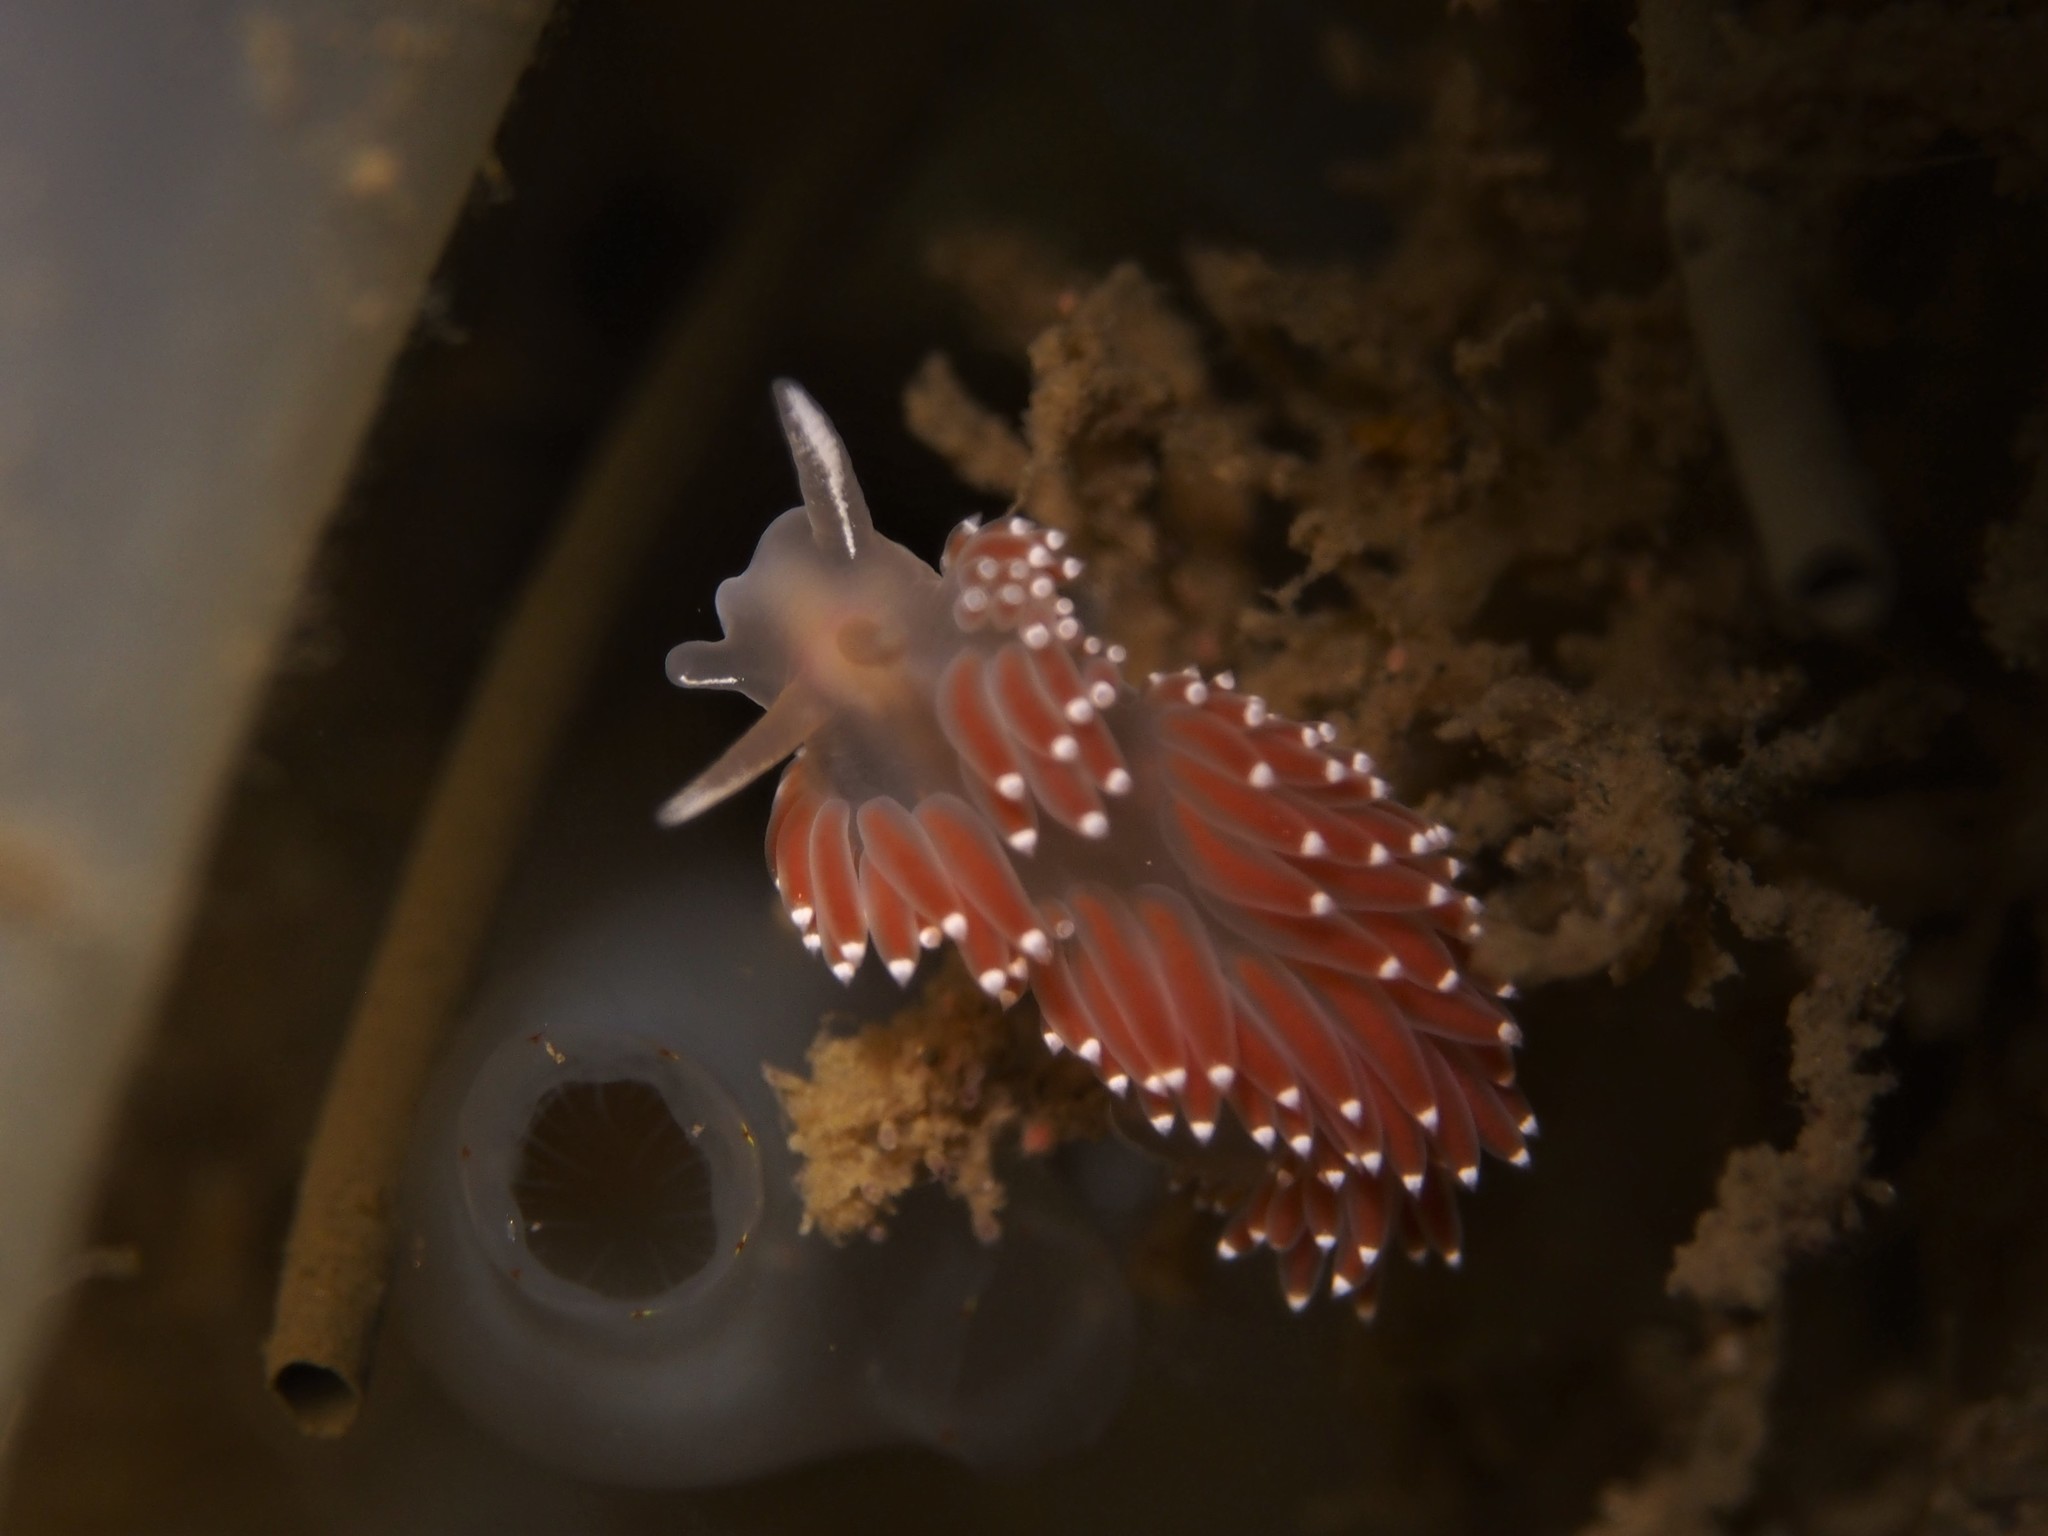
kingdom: Animalia
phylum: Mollusca
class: Gastropoda
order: Nudibranchia
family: Coryphellidae
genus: Coryphella
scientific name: Coryphella verrucosa
